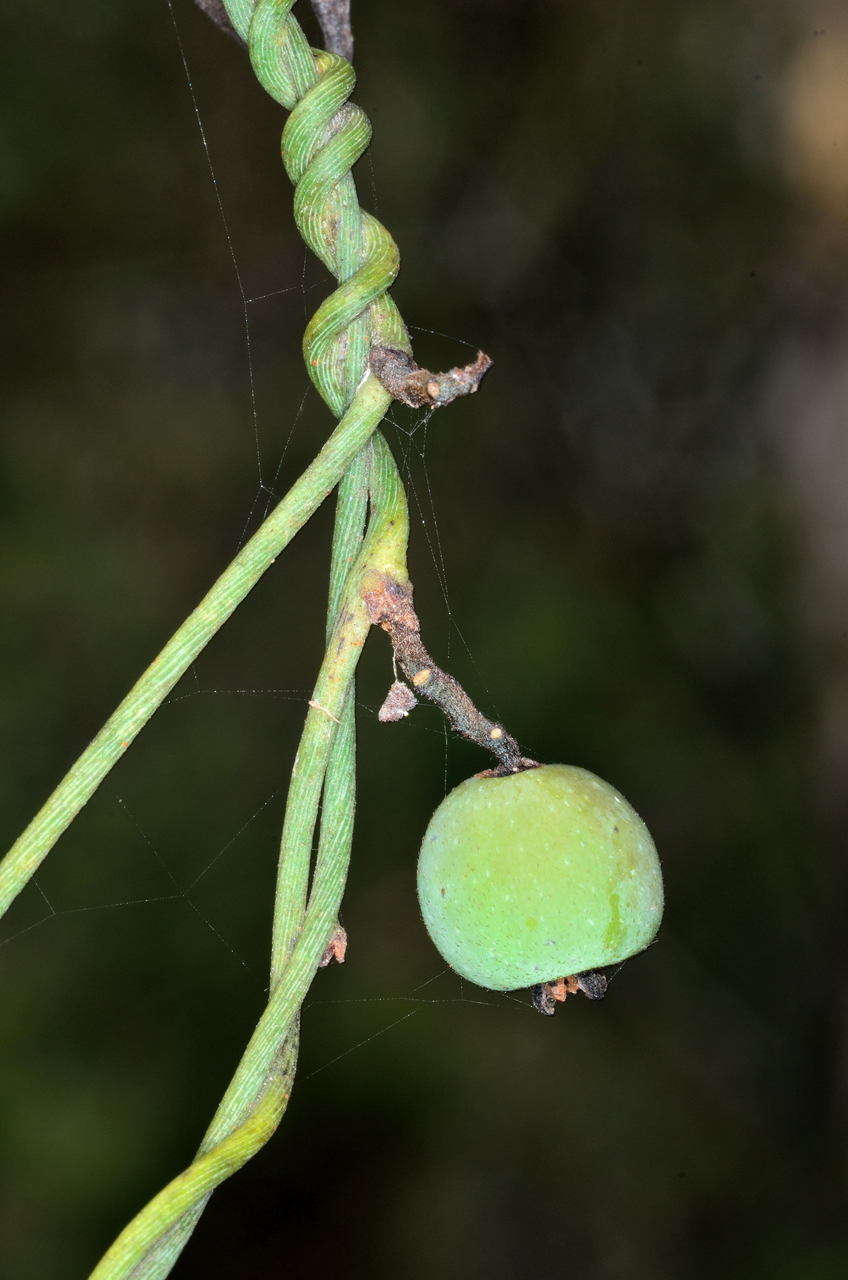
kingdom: Plantae
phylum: Tracheophyta
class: Magnoliopsida
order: Laurales
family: Lauraceae
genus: Cassytha
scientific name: Cassytha melantha
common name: Mallee stranglevine
